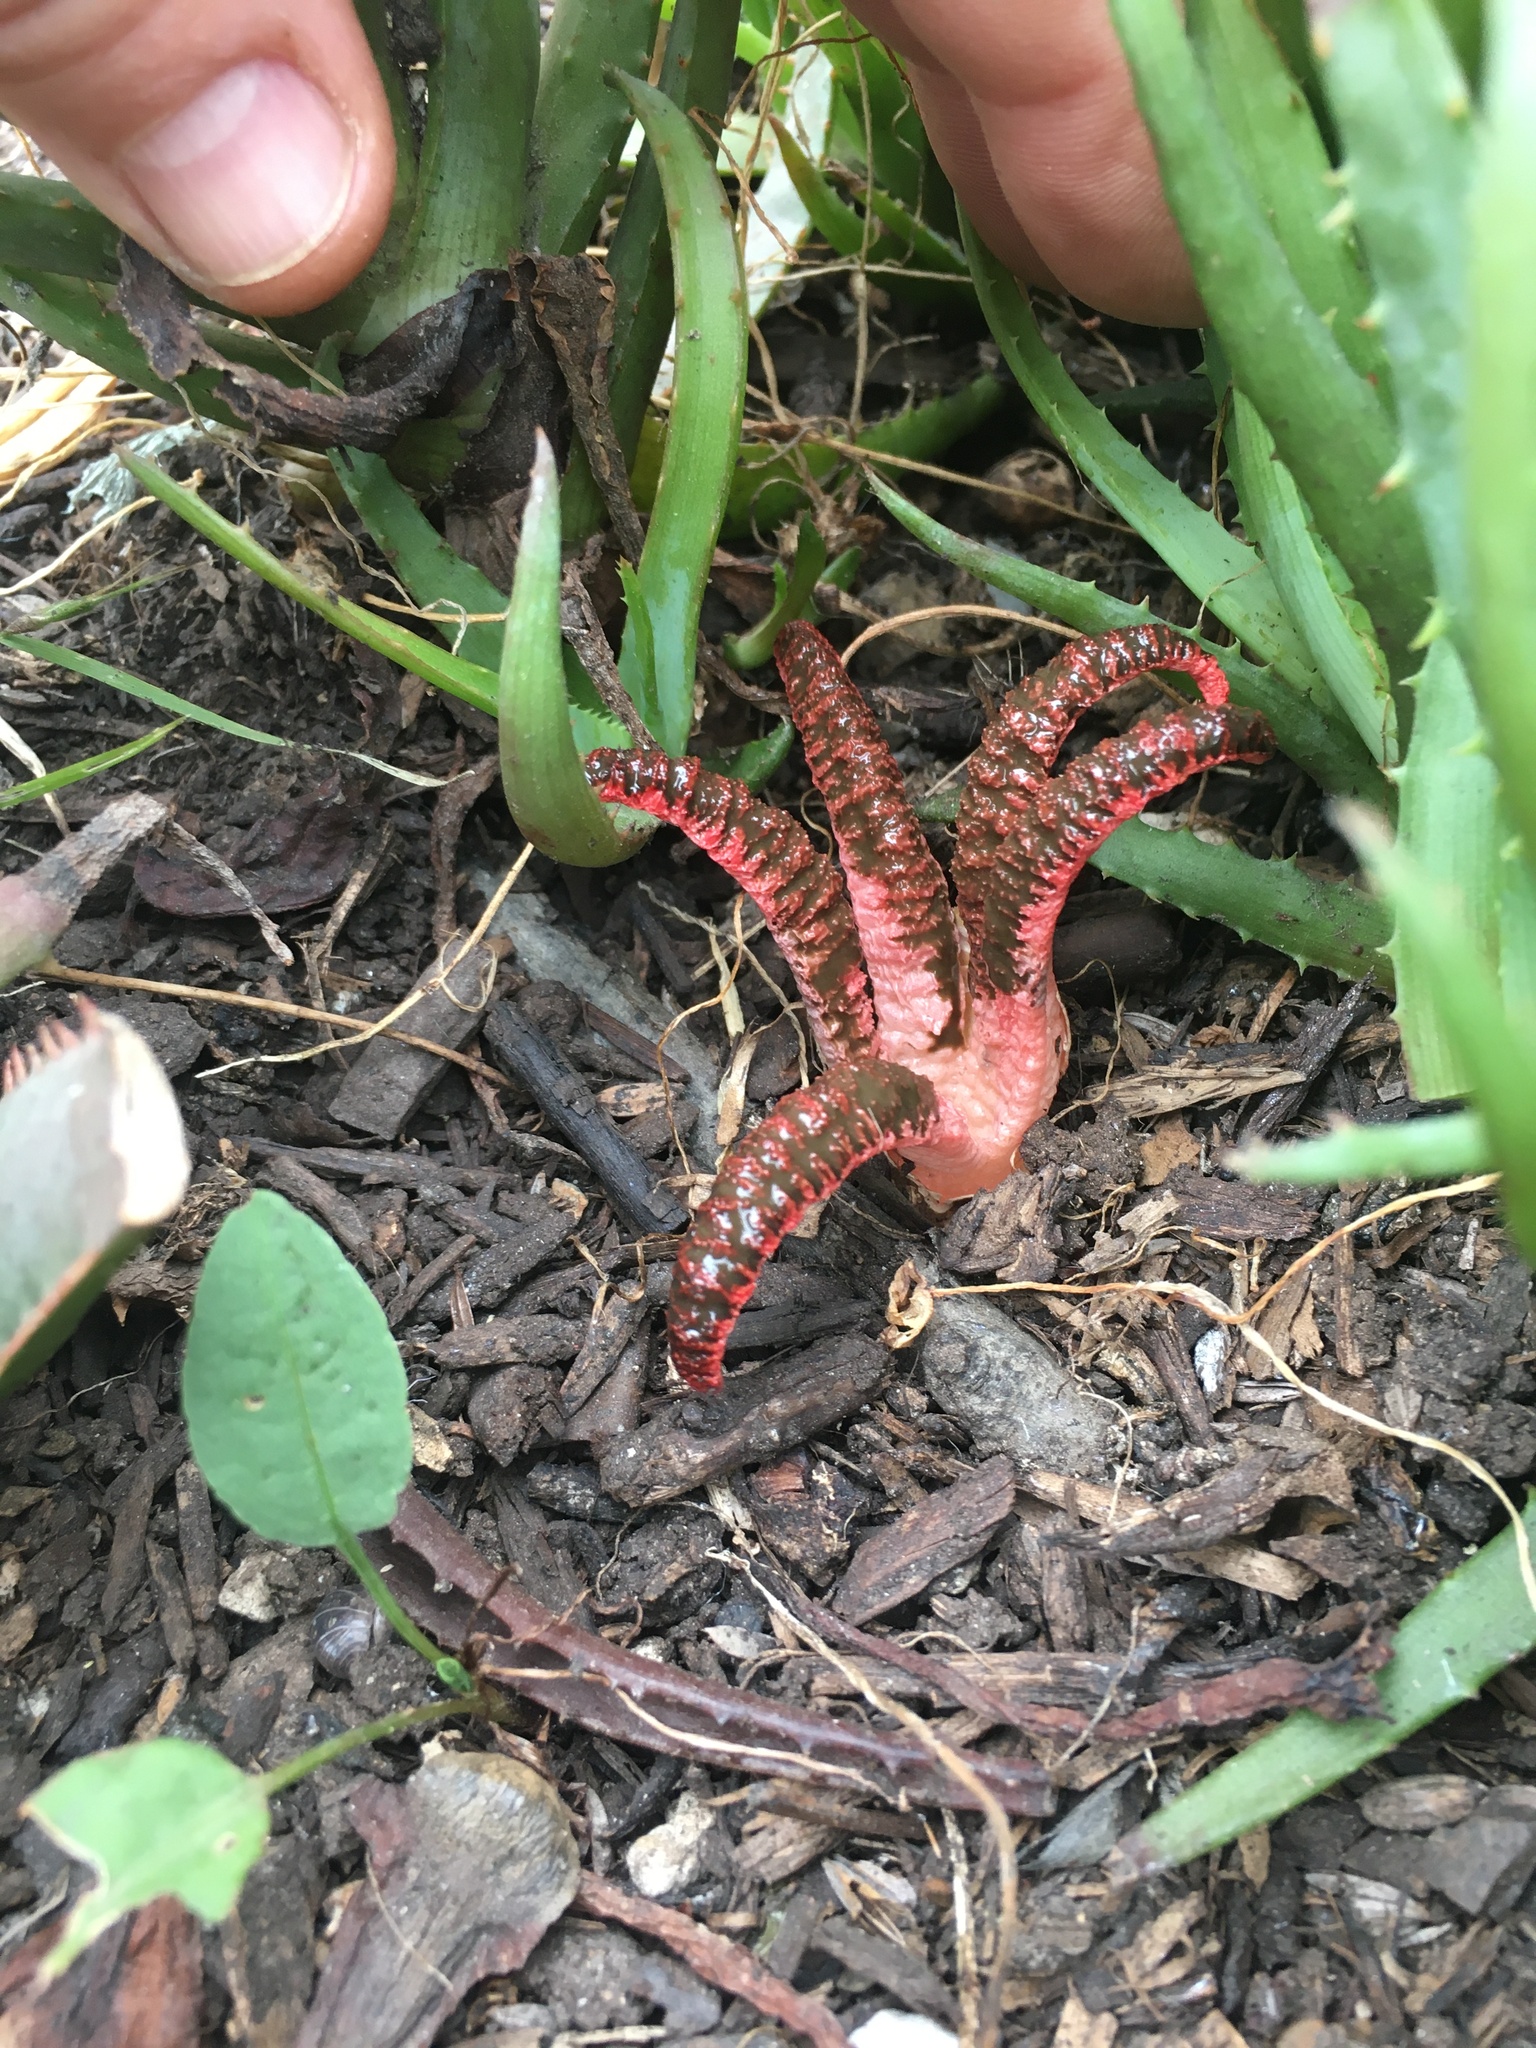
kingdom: Fungi
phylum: Basidiomycota
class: Agaricomycetes
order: Phallales
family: Phallaceae
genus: Clathrus
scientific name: Clathrus archeri
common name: Devil's fingers
